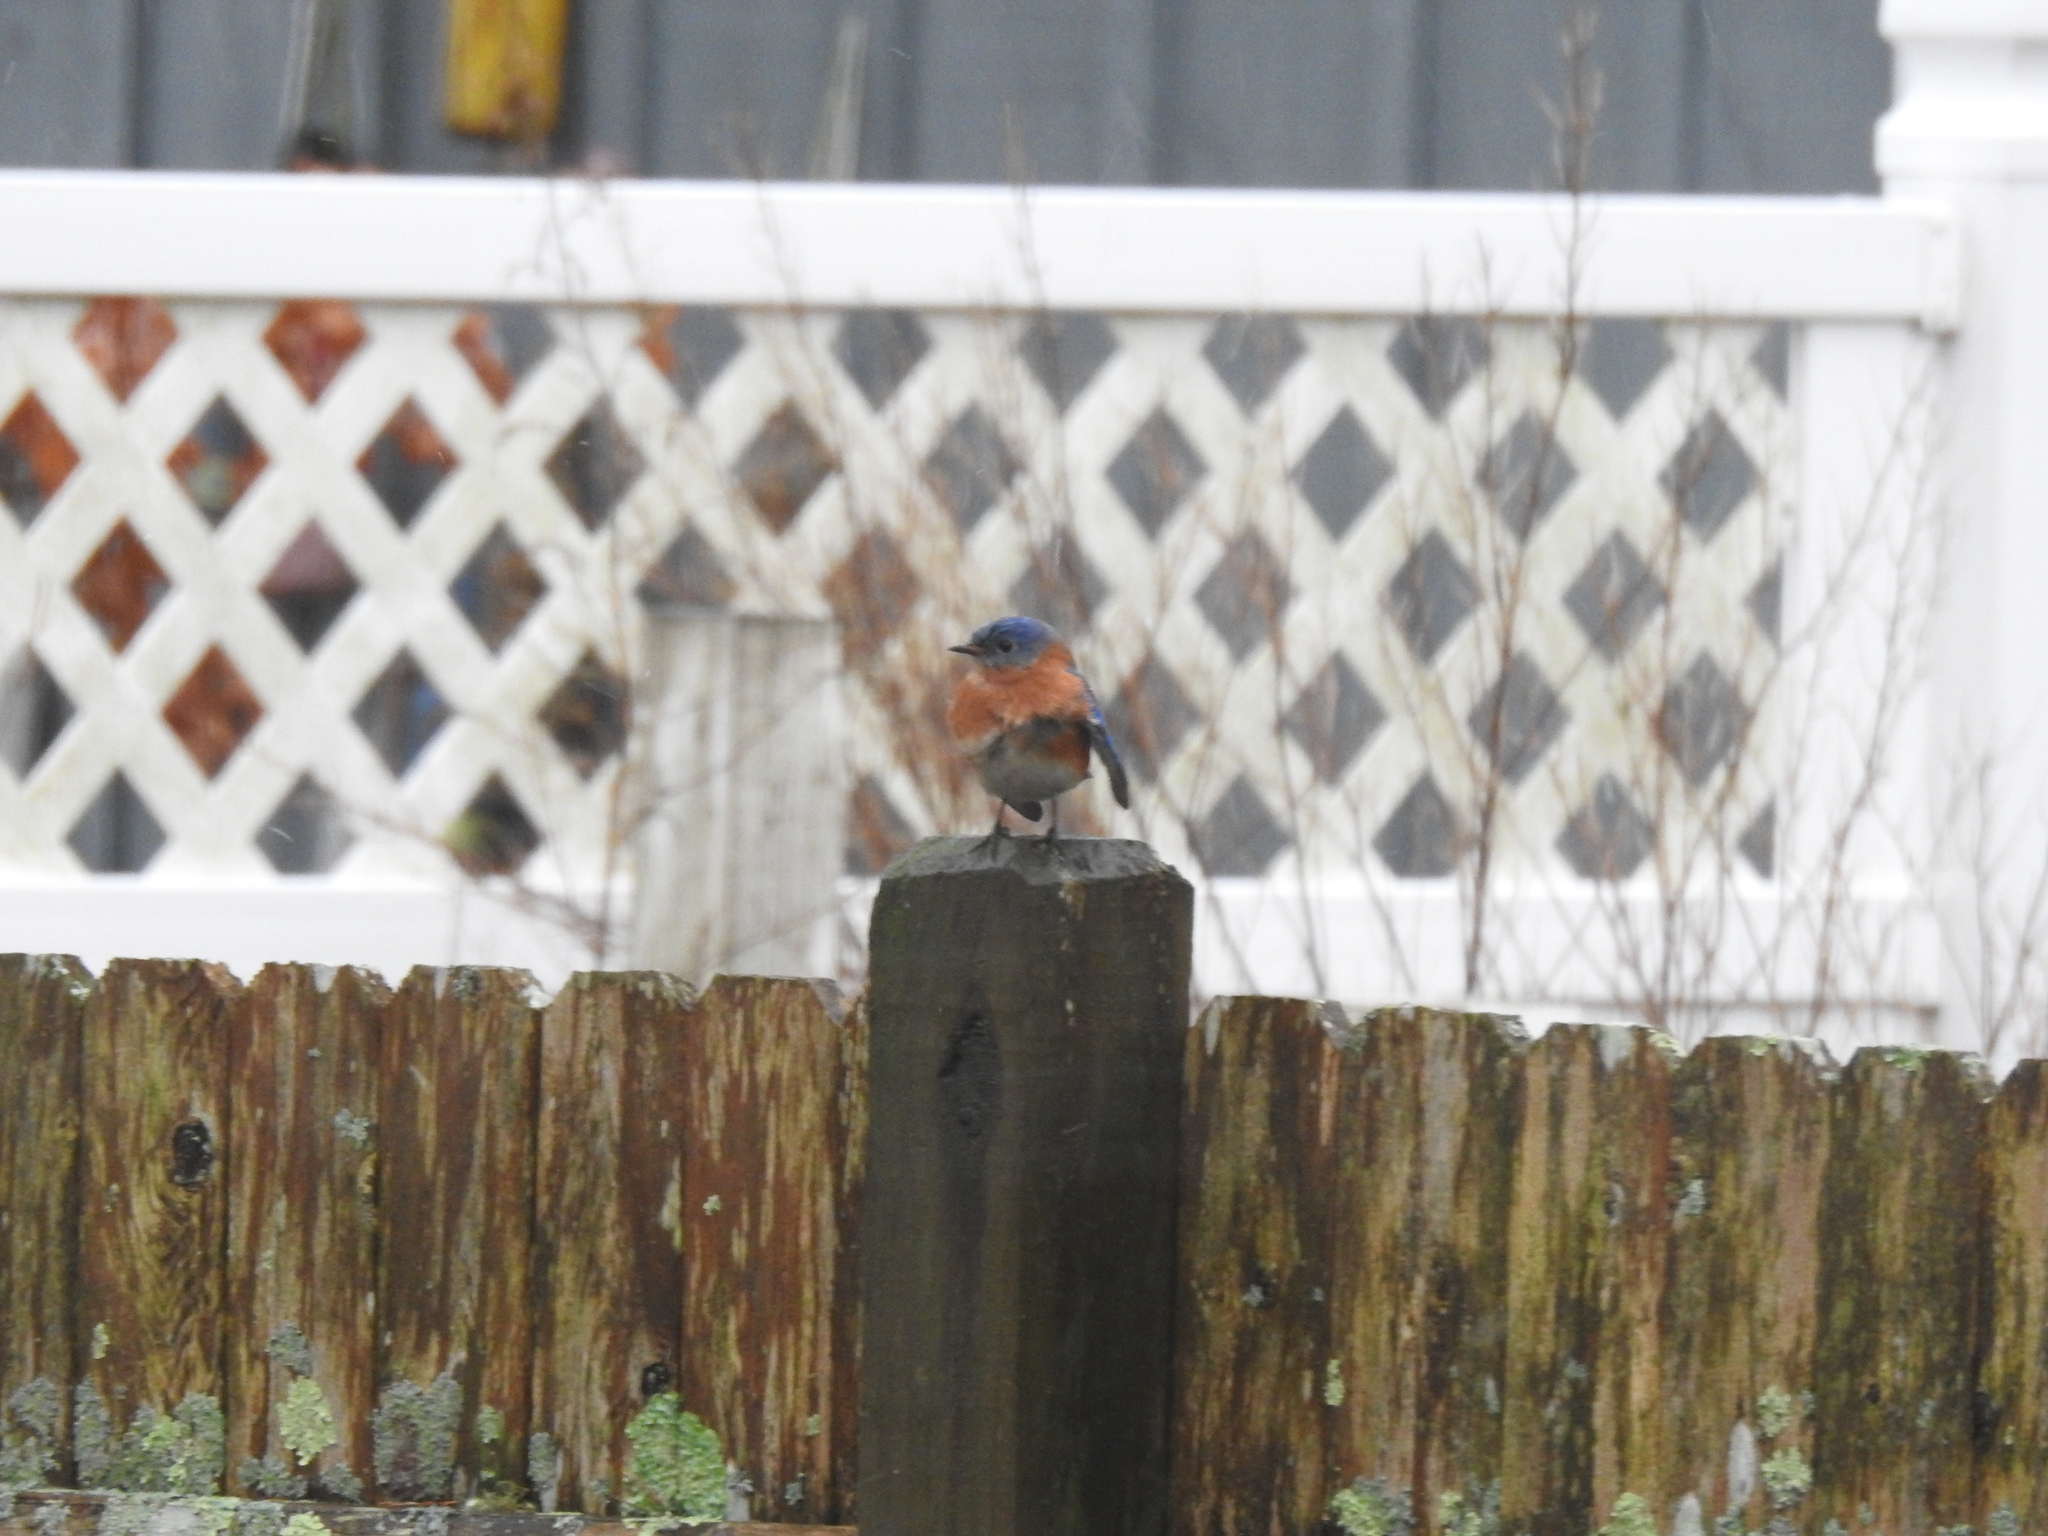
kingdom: Animalia
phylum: Chordata
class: Aves
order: Passeriformes
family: Turdidae
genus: Sialia
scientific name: Sialia sialis
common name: Eastern bluebird
